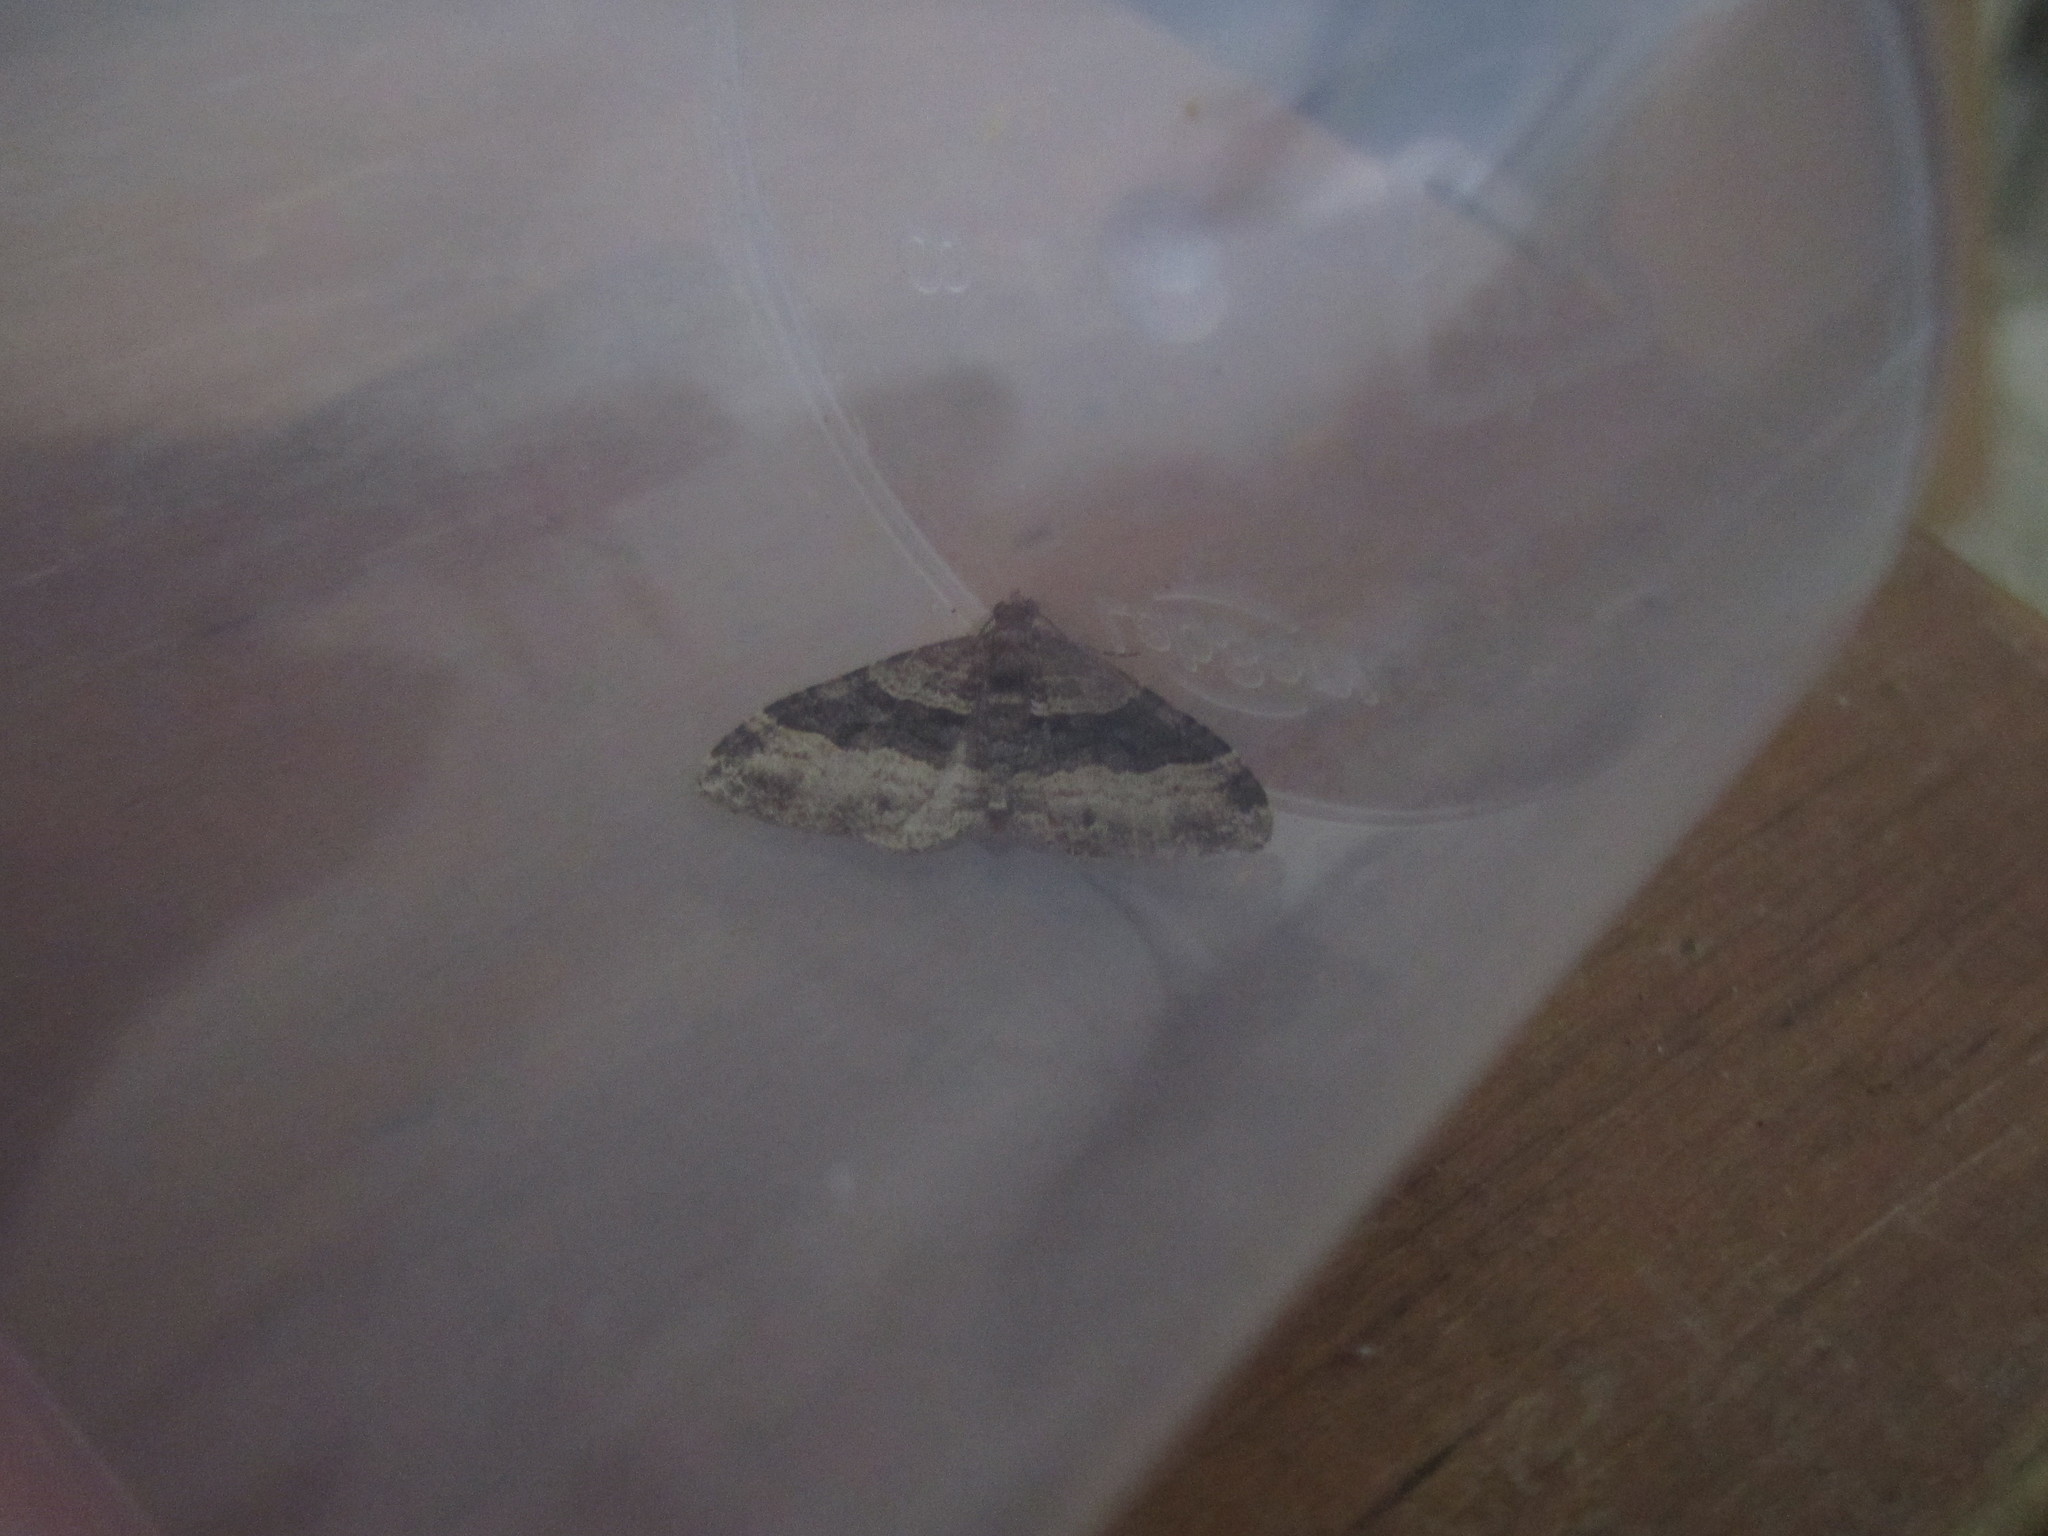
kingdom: Animalia
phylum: Arthropoda
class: Insecta
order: Lepidoptera
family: Geometridae
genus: Epyaxa
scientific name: Epyaxa lucidata
